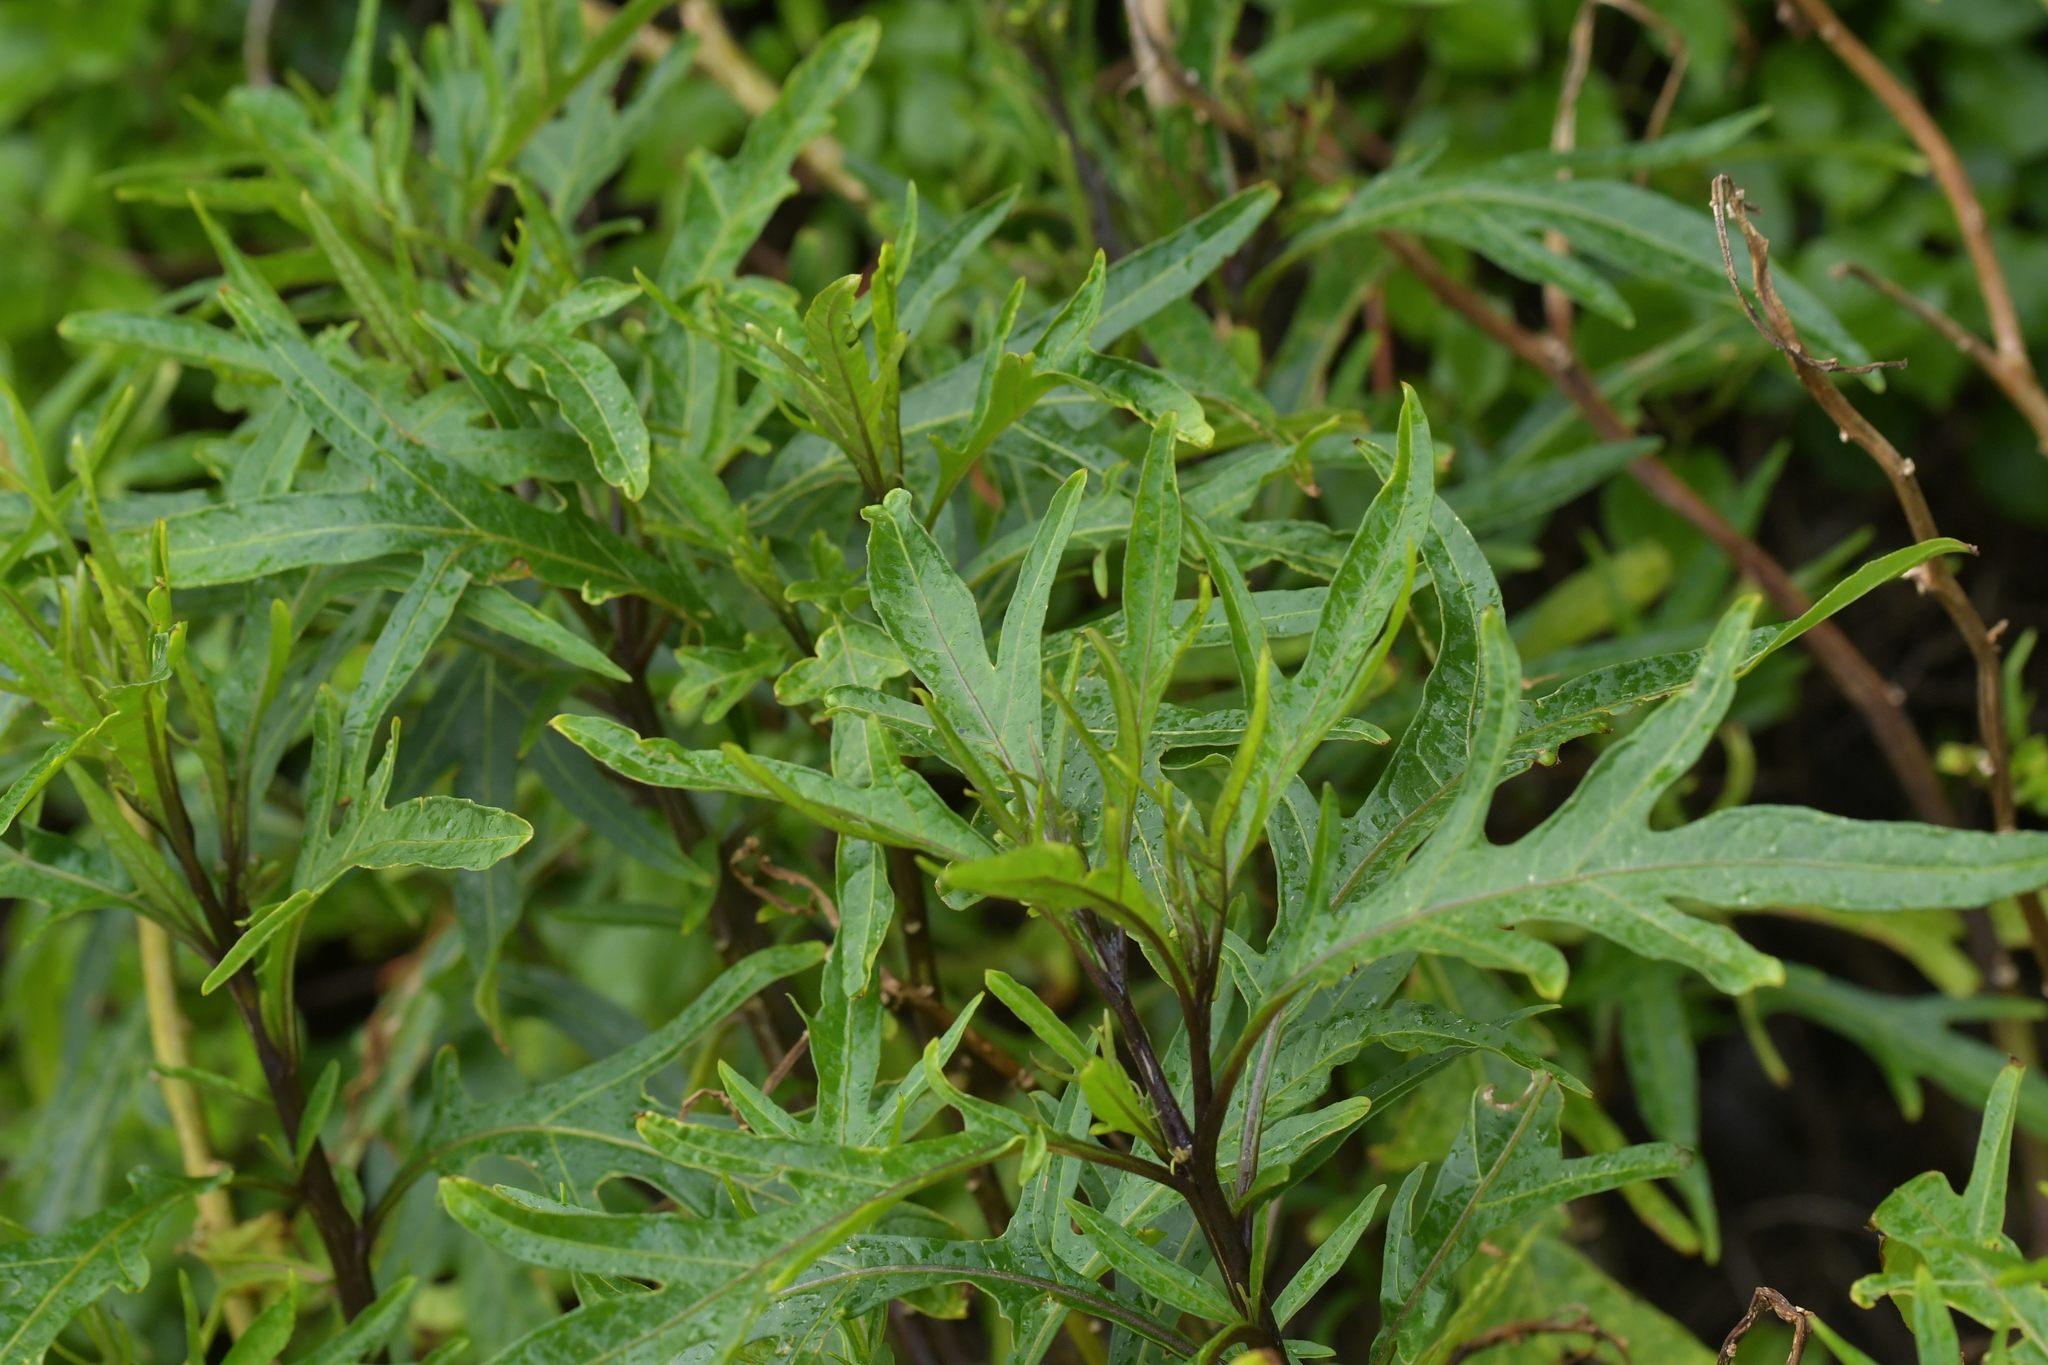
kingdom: Plantae
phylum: Tracheophyta
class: Magnoliopsida
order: Solanales
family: Solanaceae
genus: Solanum
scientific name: Solanum
